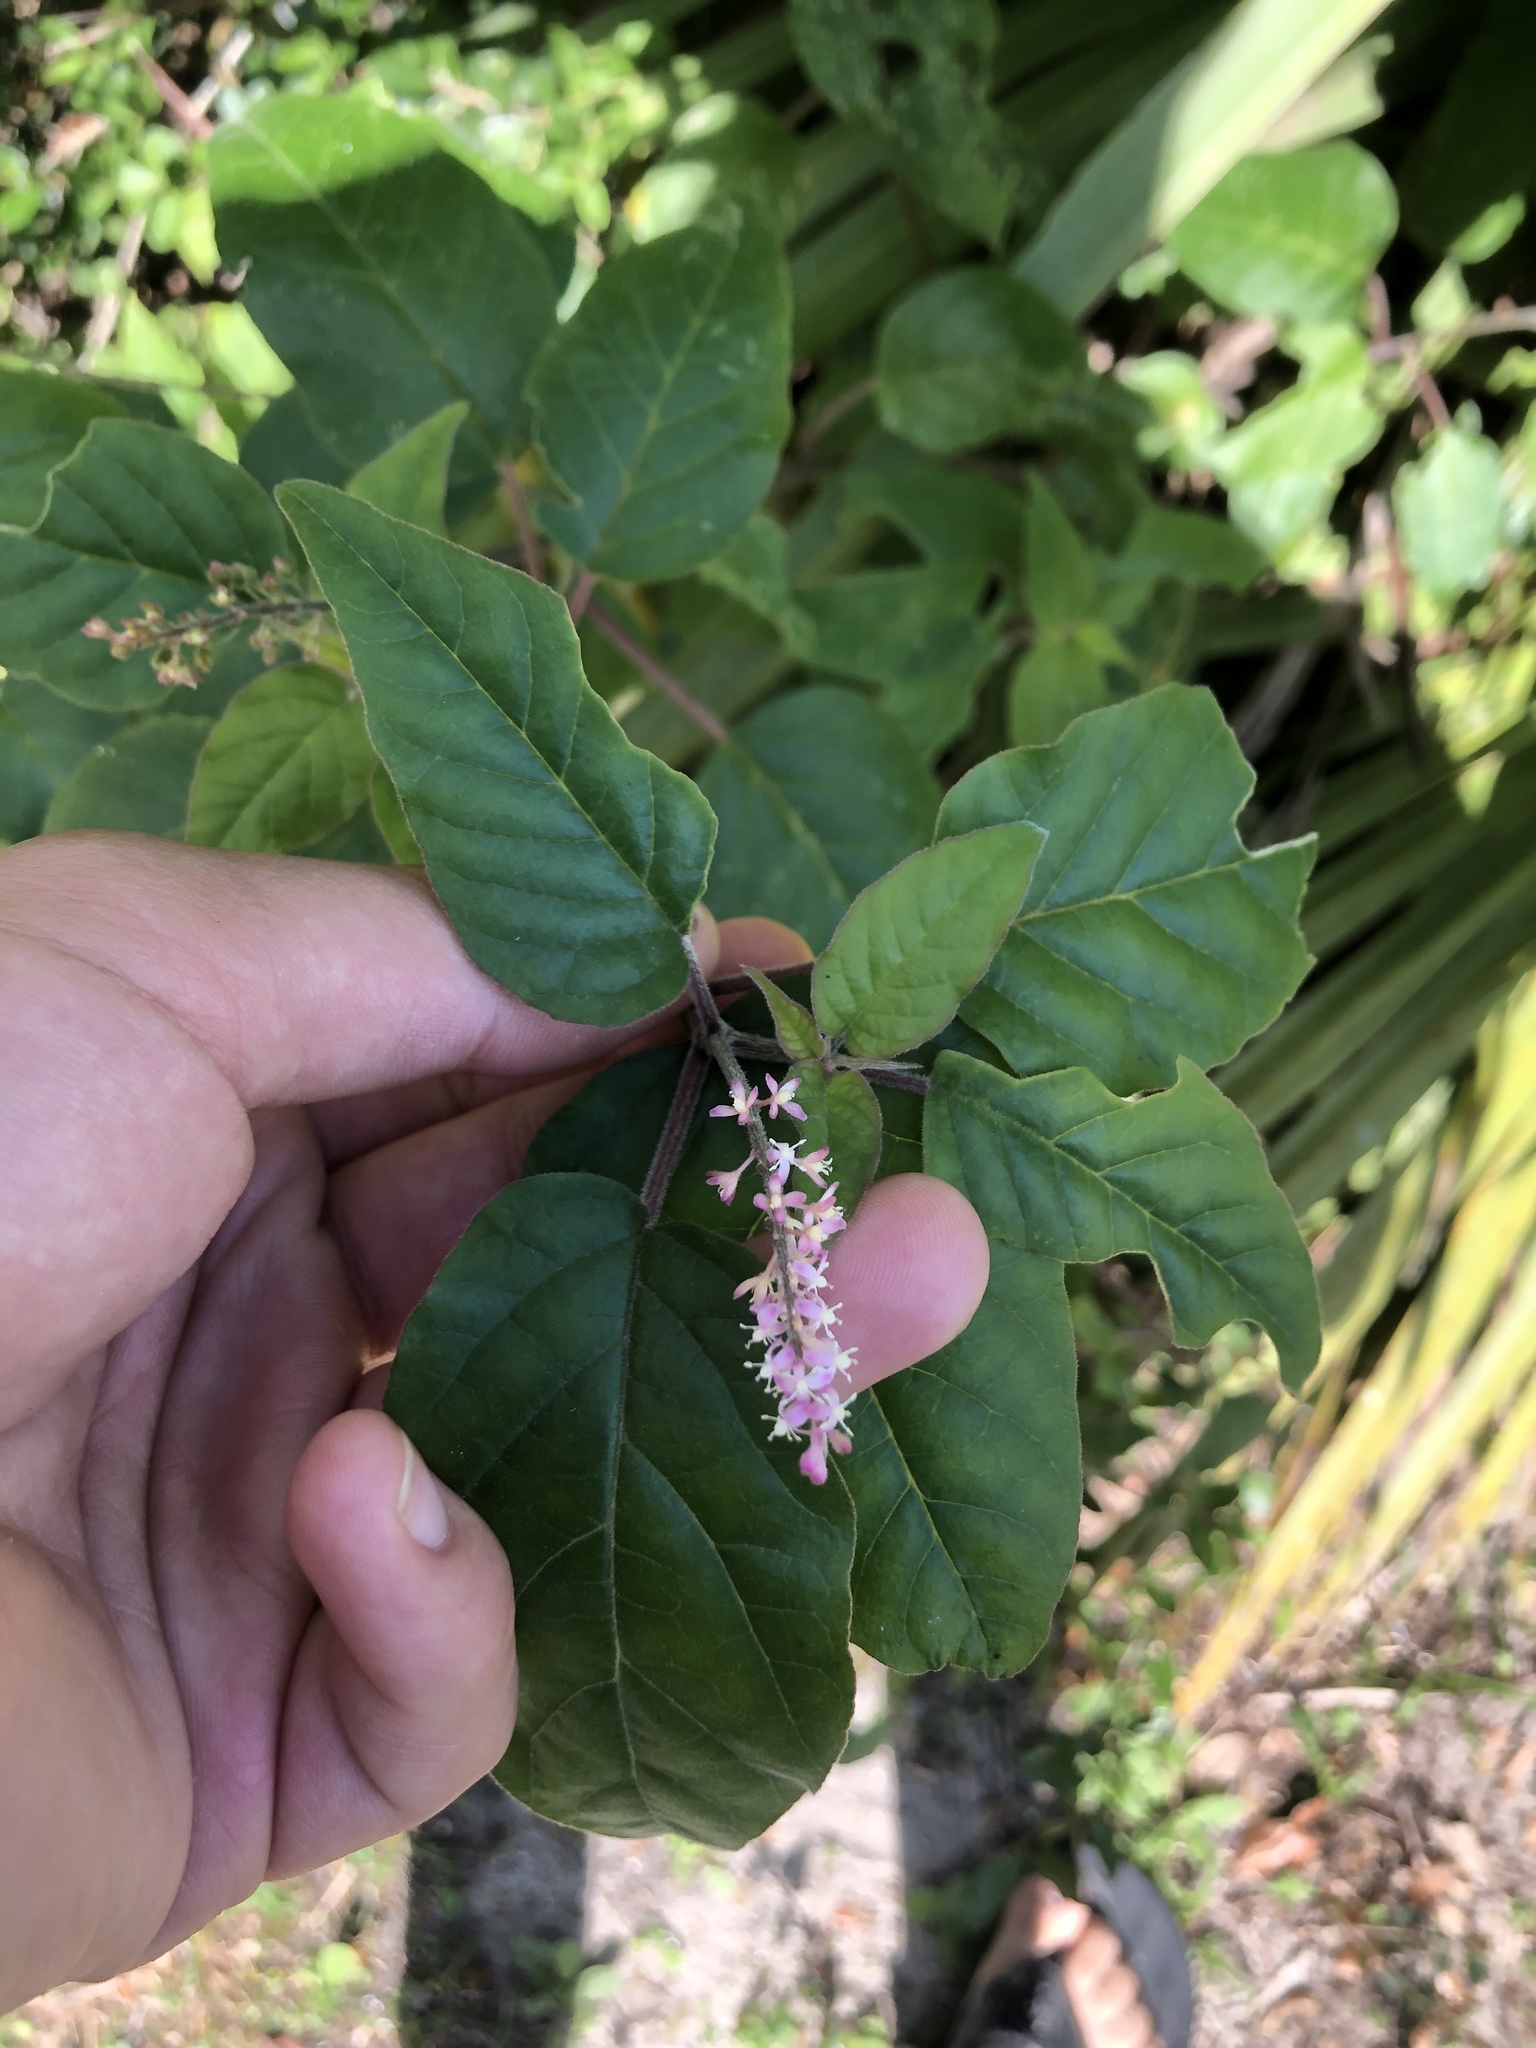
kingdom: Plantae
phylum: Tracheophyta
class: Magnoliopsida
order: Caryophyllales
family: Phytolaccaceae
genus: Rivina
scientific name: Rivina humilis
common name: Rougeplant
